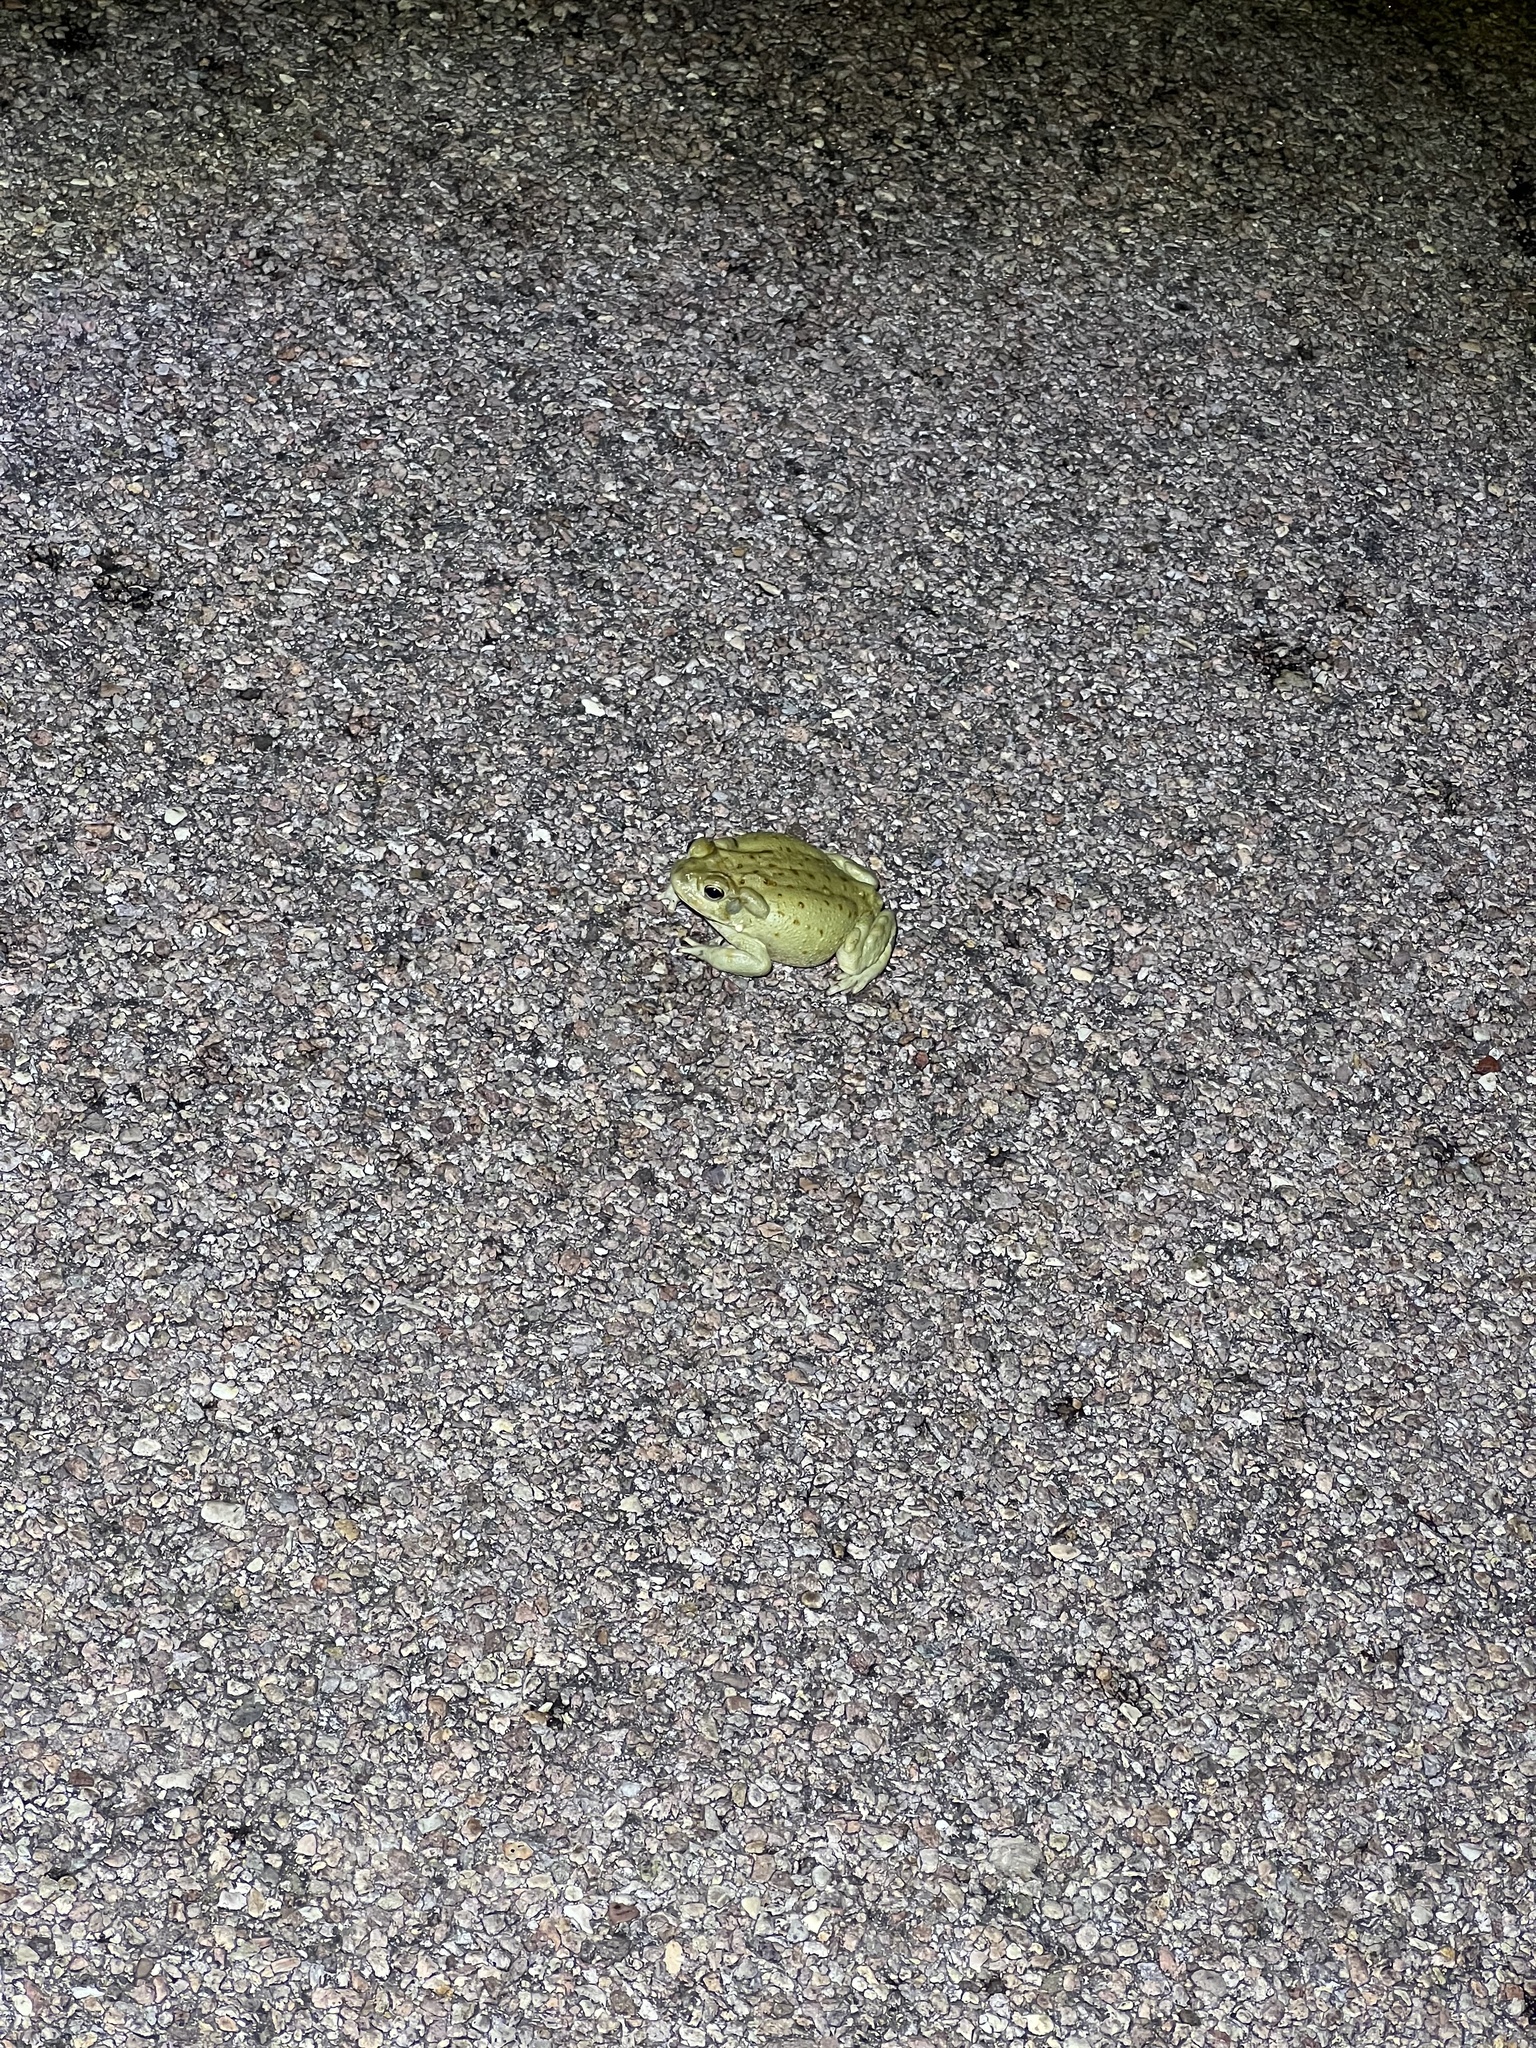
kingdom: Animalia
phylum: Chordata
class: Amphibia
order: Anura
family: Bufonidae
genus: Incilius
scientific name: Incilius alvarius
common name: Sonoran desert toad
